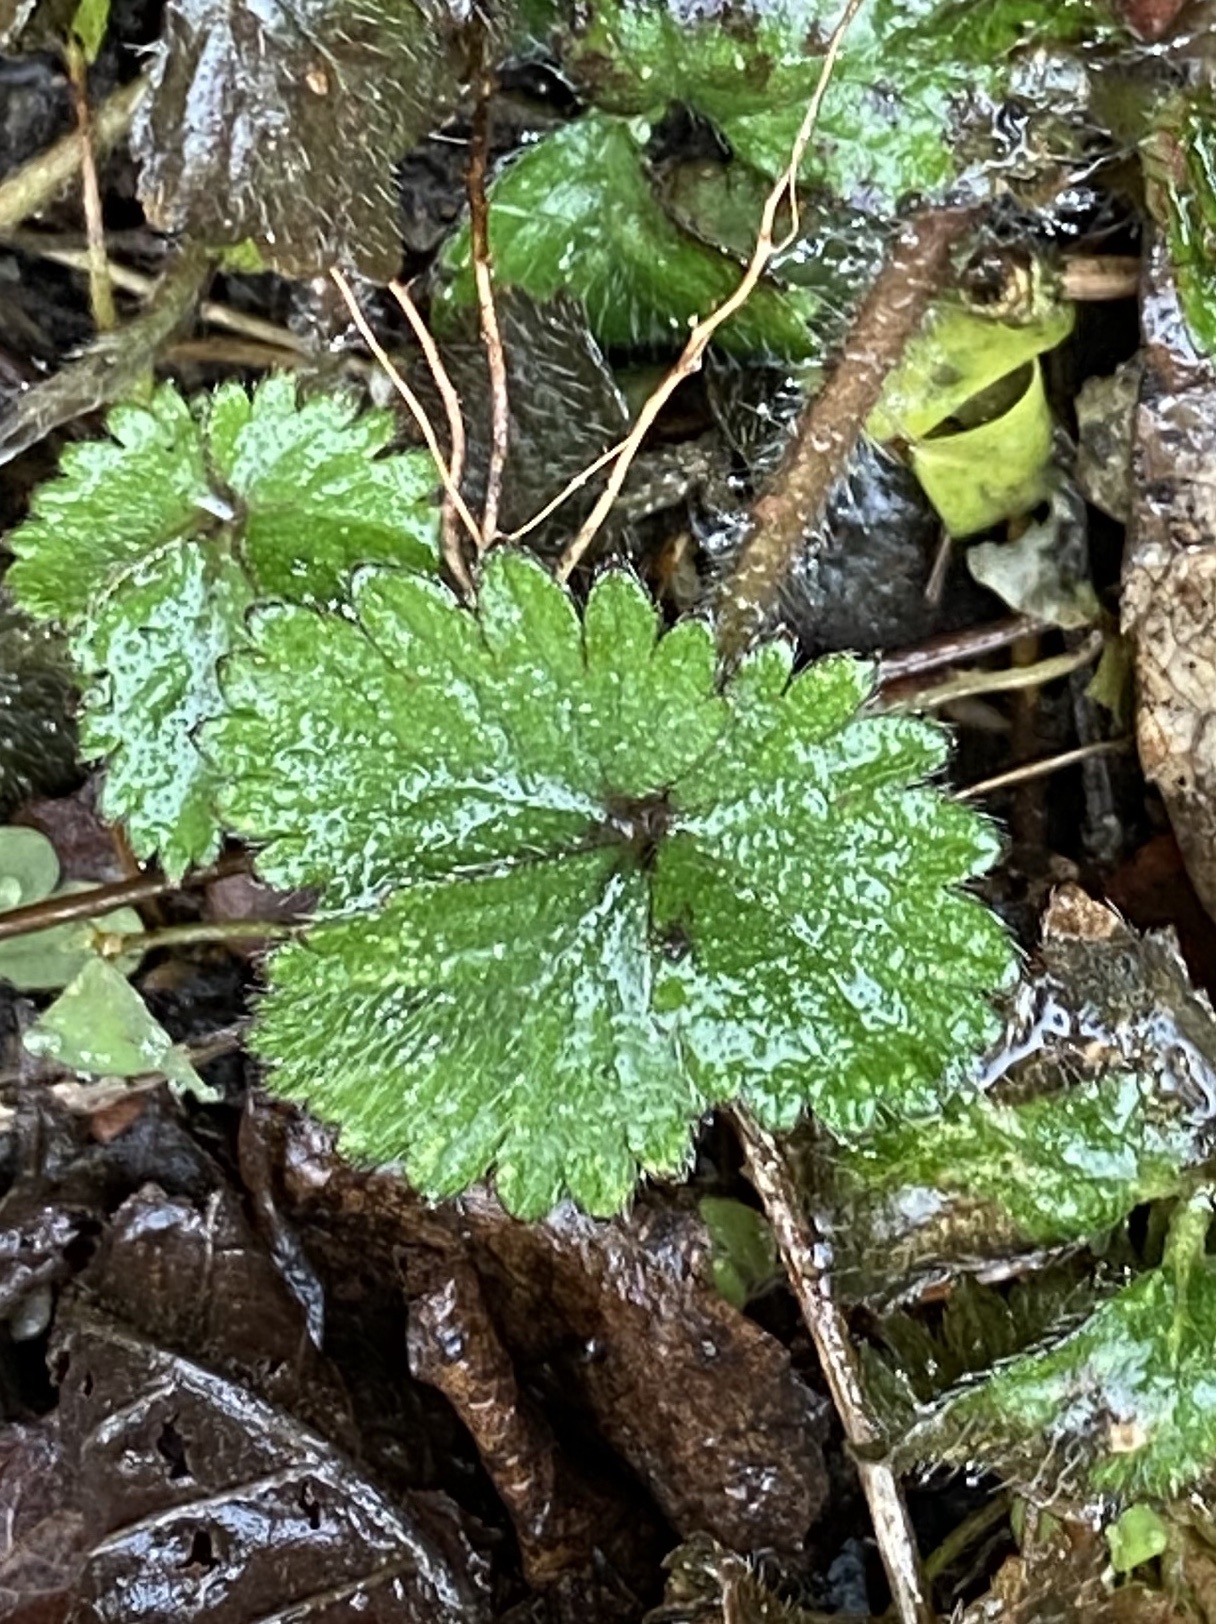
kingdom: Plantae
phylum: Tracheophyta
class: Magnoliopsida
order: Rosales
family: Rosaceae
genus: Potentilla
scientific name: Potentilla indica
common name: Yellow-flowered strawberry
